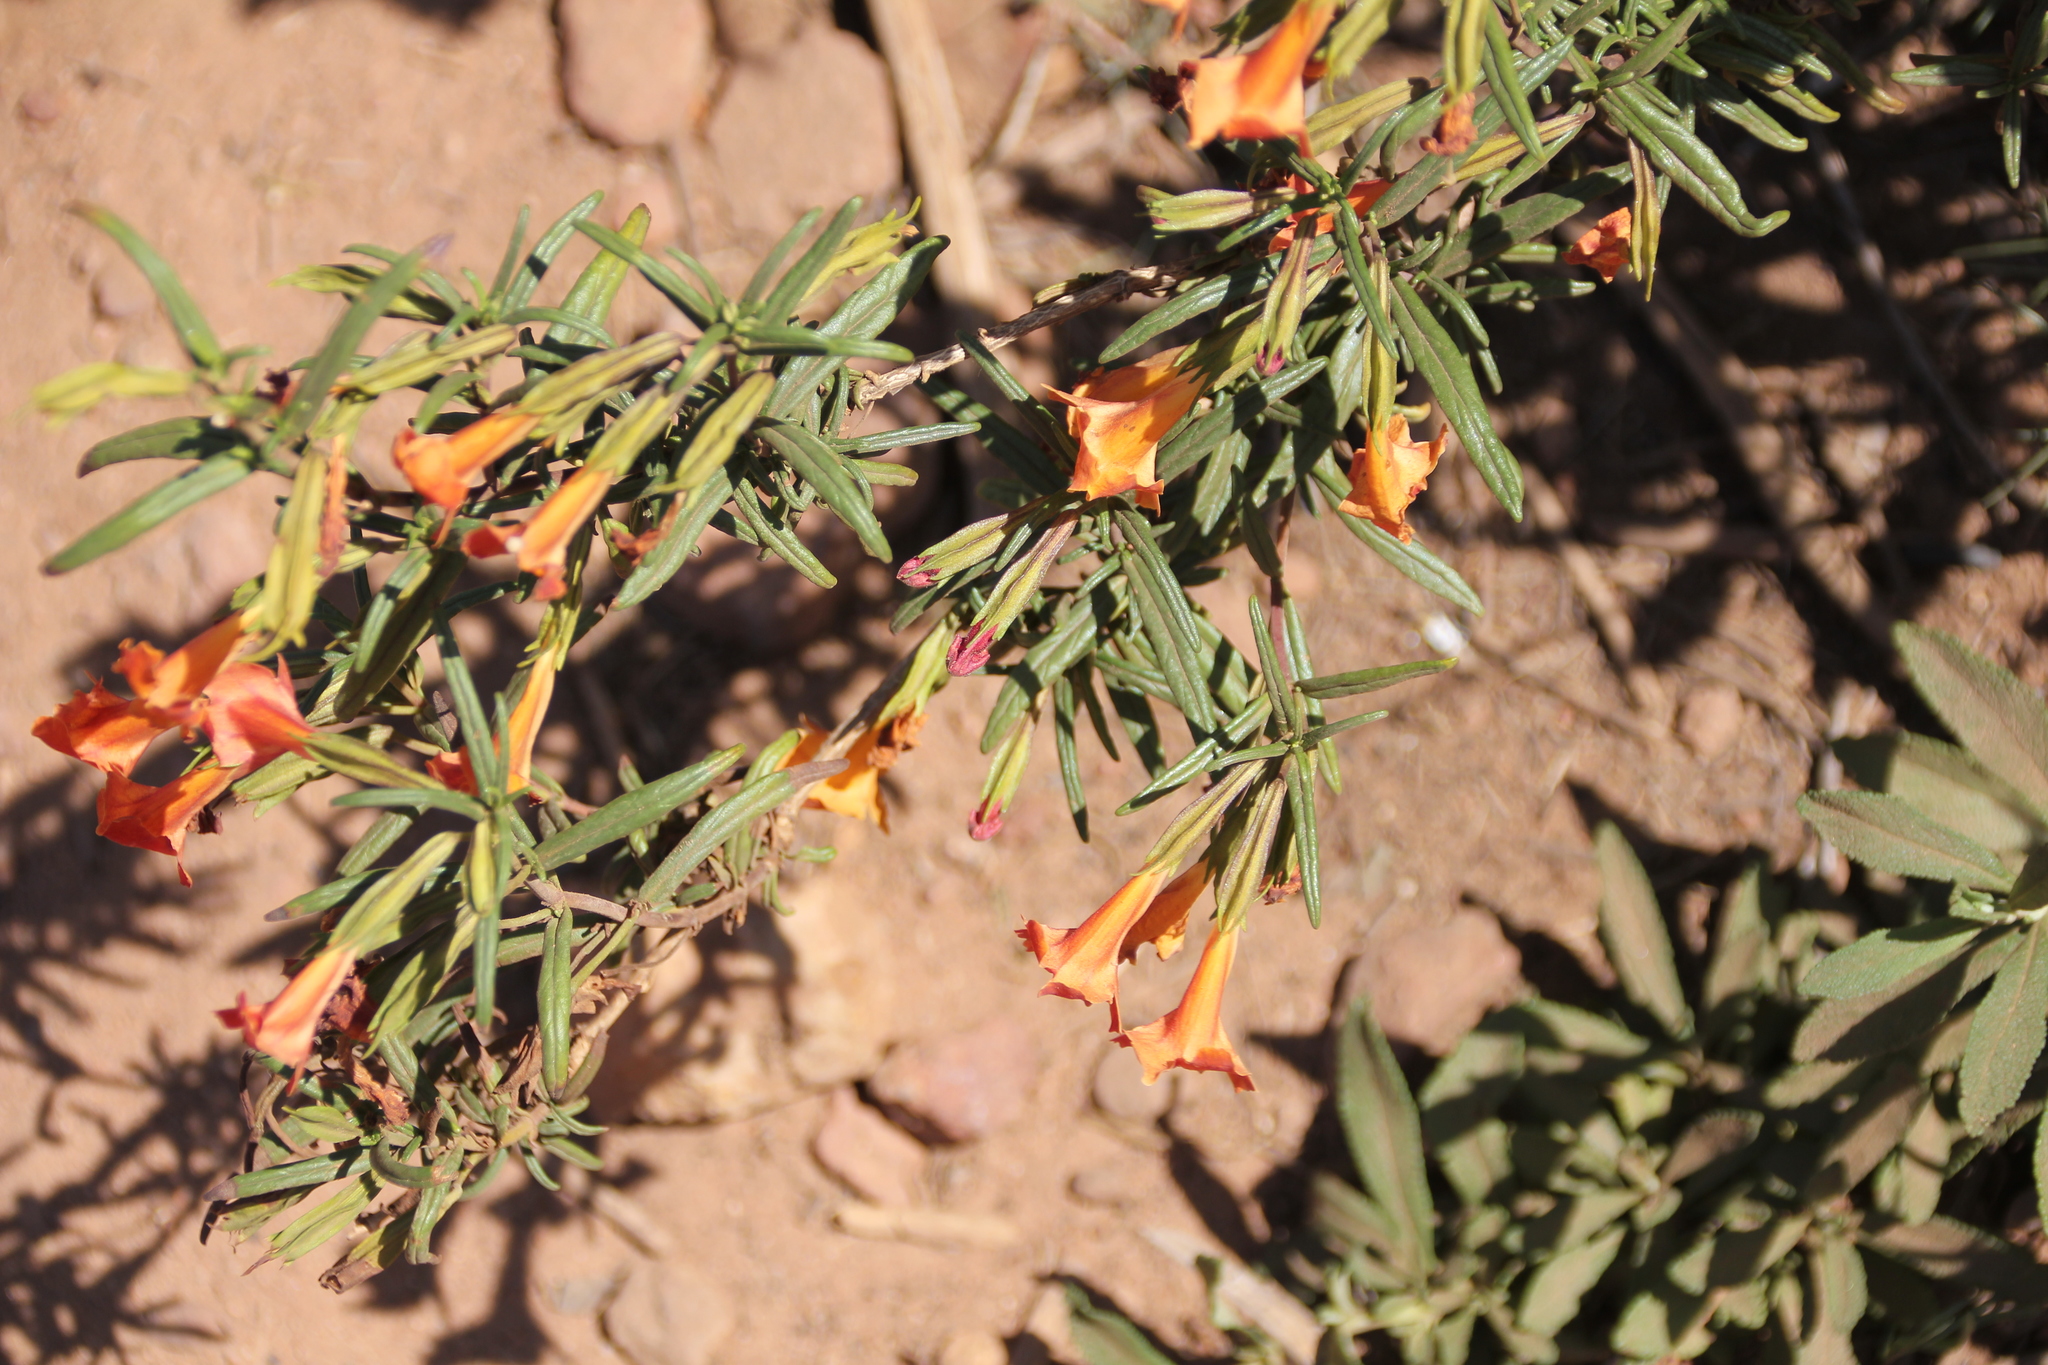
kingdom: Plantae
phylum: Tracheophyta
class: Magnoliopsida
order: Lamiales
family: Phrymaceae
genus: Diplacus
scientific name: Diplacus australis
